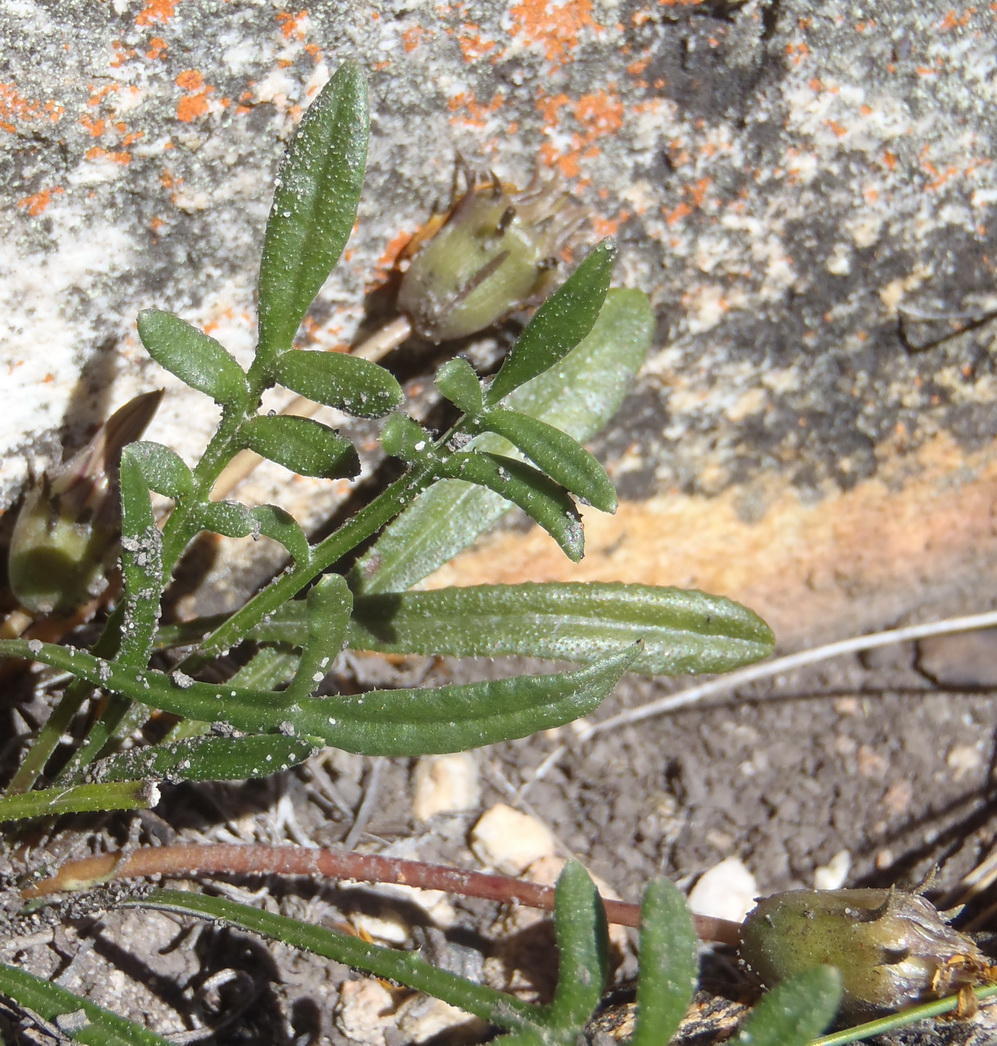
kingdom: Plantae
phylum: Tracheophyta
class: Magnoliopsida
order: Asterales
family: Asteraceae
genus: Gazania
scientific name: Gazania krebsiana
